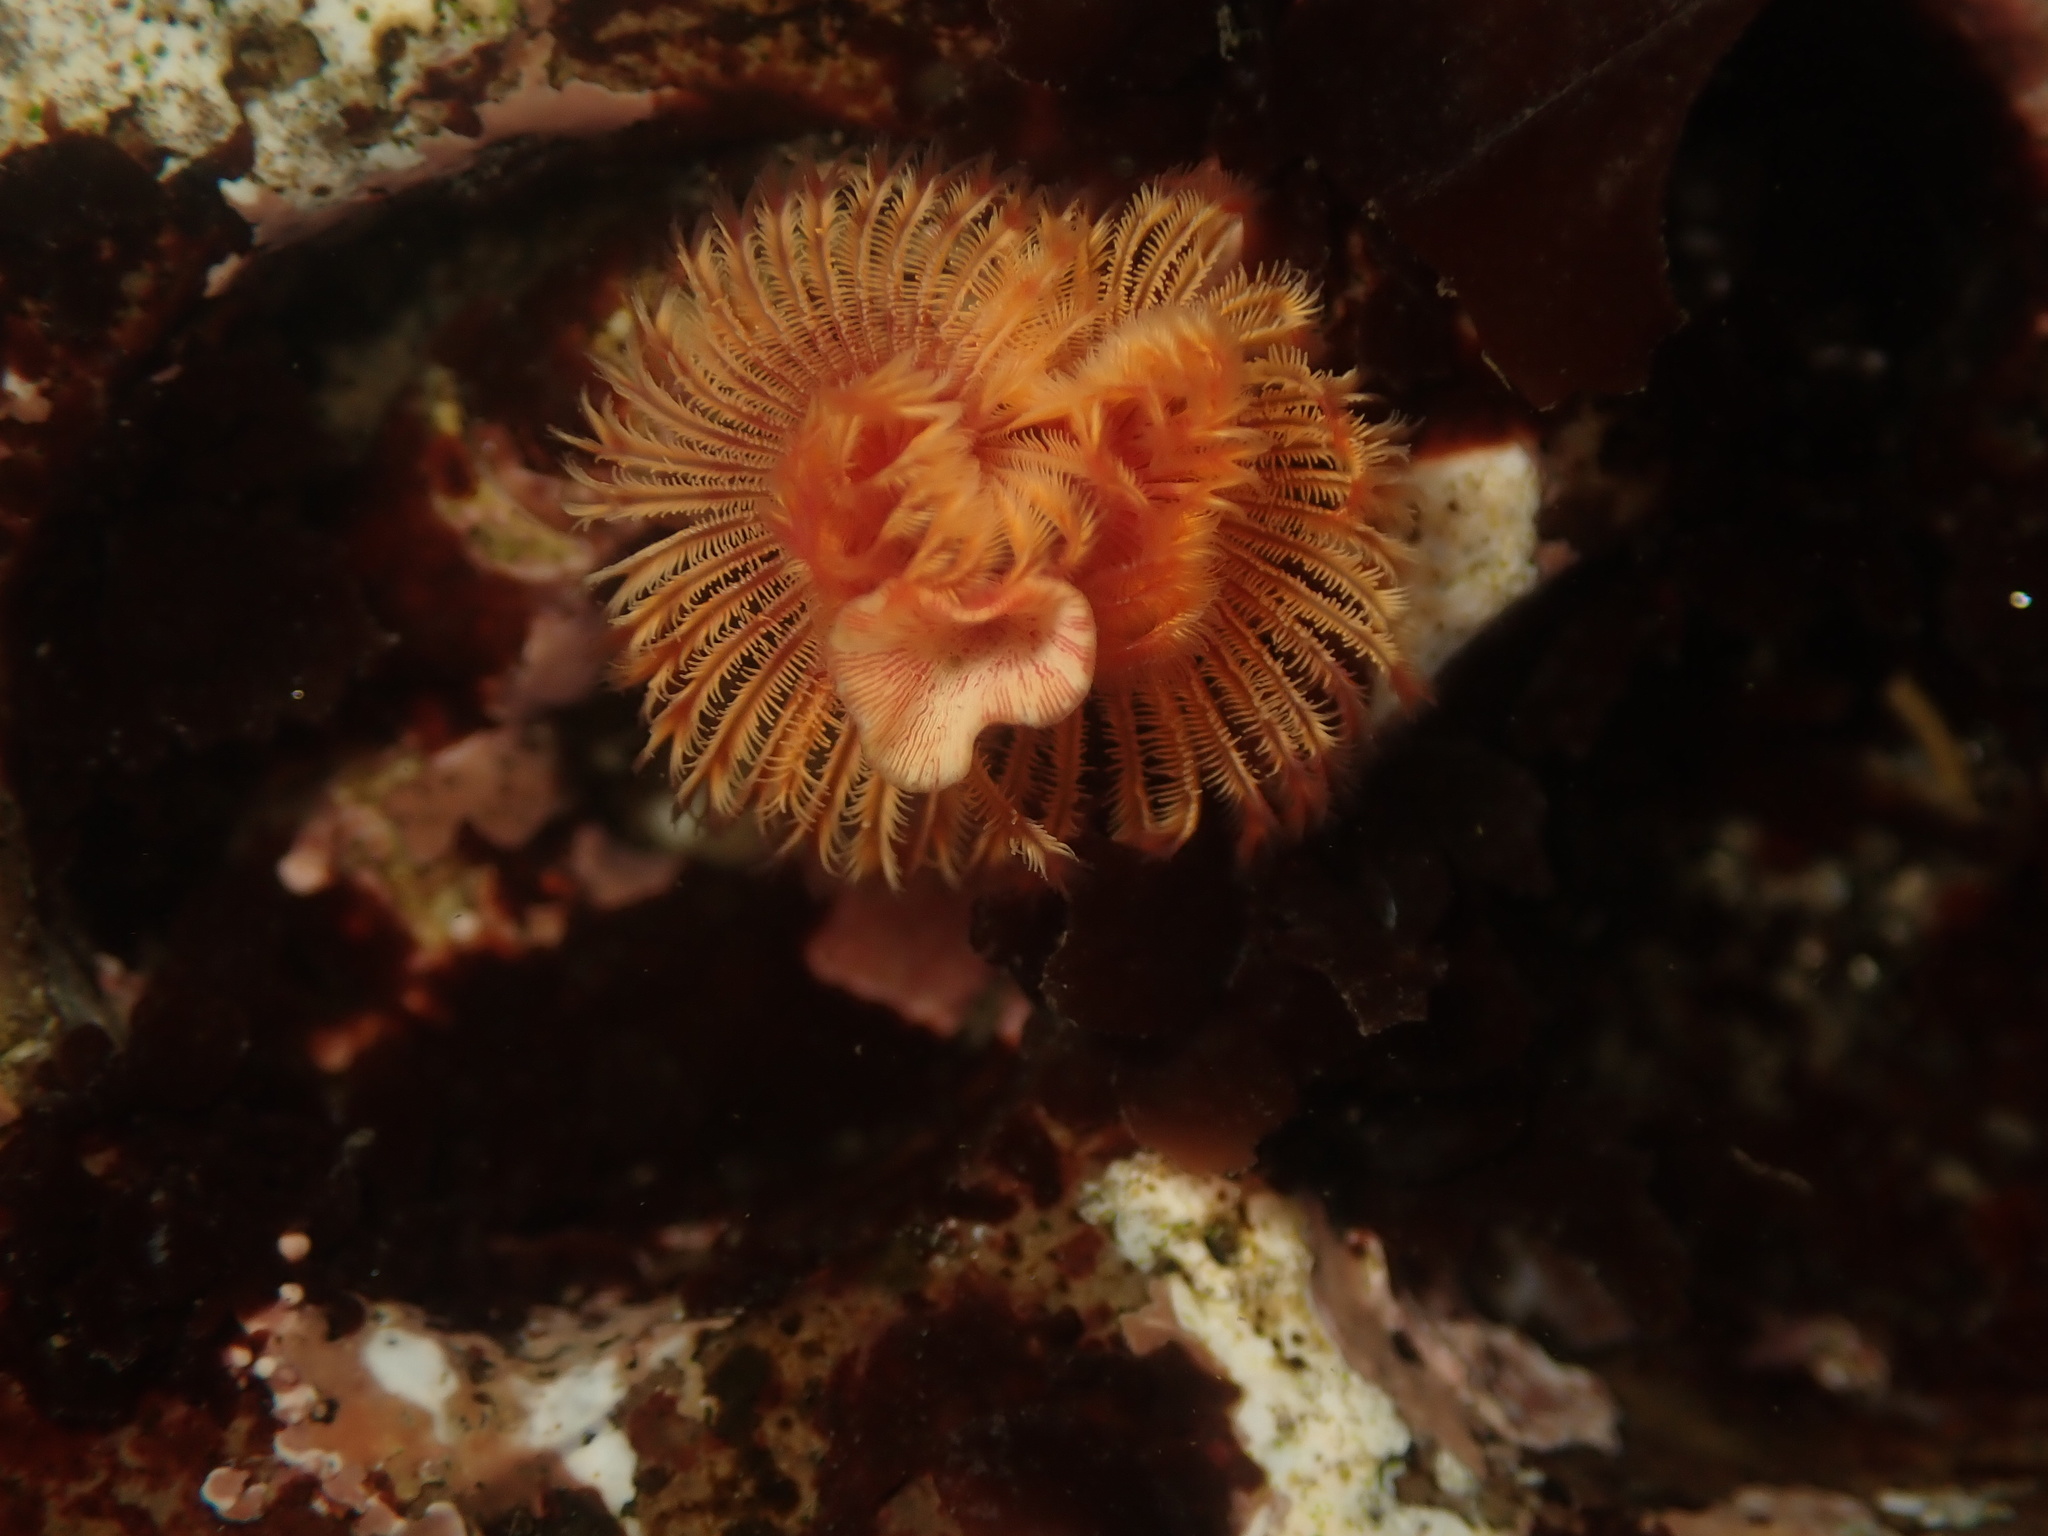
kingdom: Animalia
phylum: Annelida
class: Polychaeta
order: Sabellida
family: Serpulidae
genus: Serpula
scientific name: Serpula columbiana
